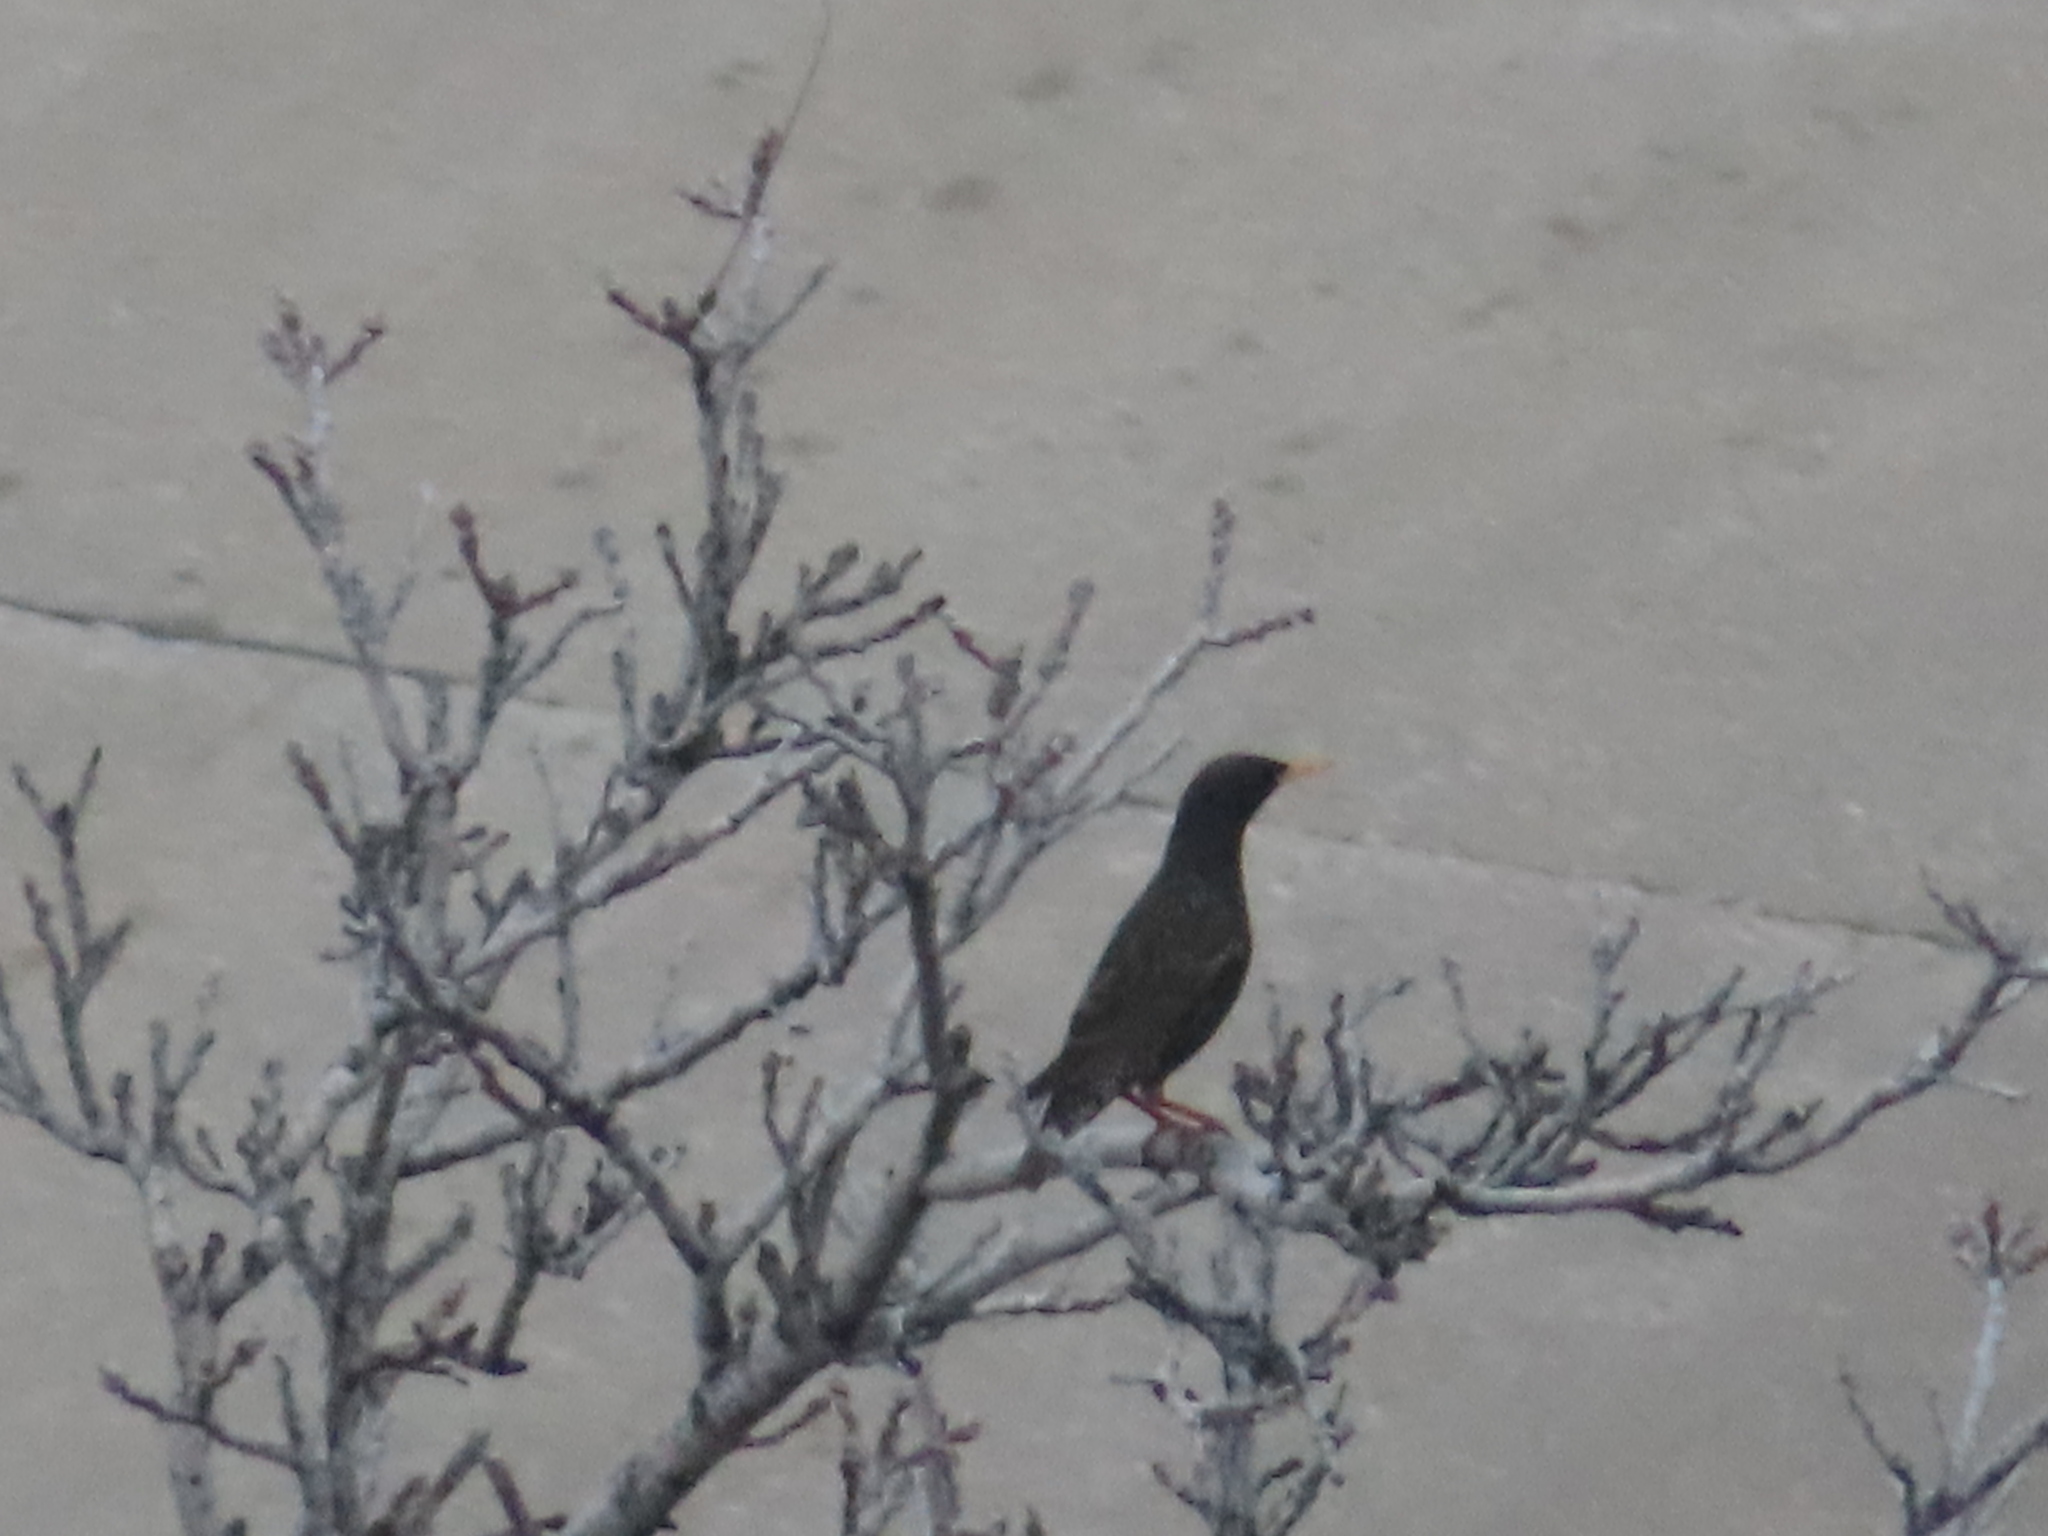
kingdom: Animalia
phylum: Chordata
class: Aves
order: Passeriformes
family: Sturnidae
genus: Sturnus
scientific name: Sturnus vulgaris
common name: Common starling
